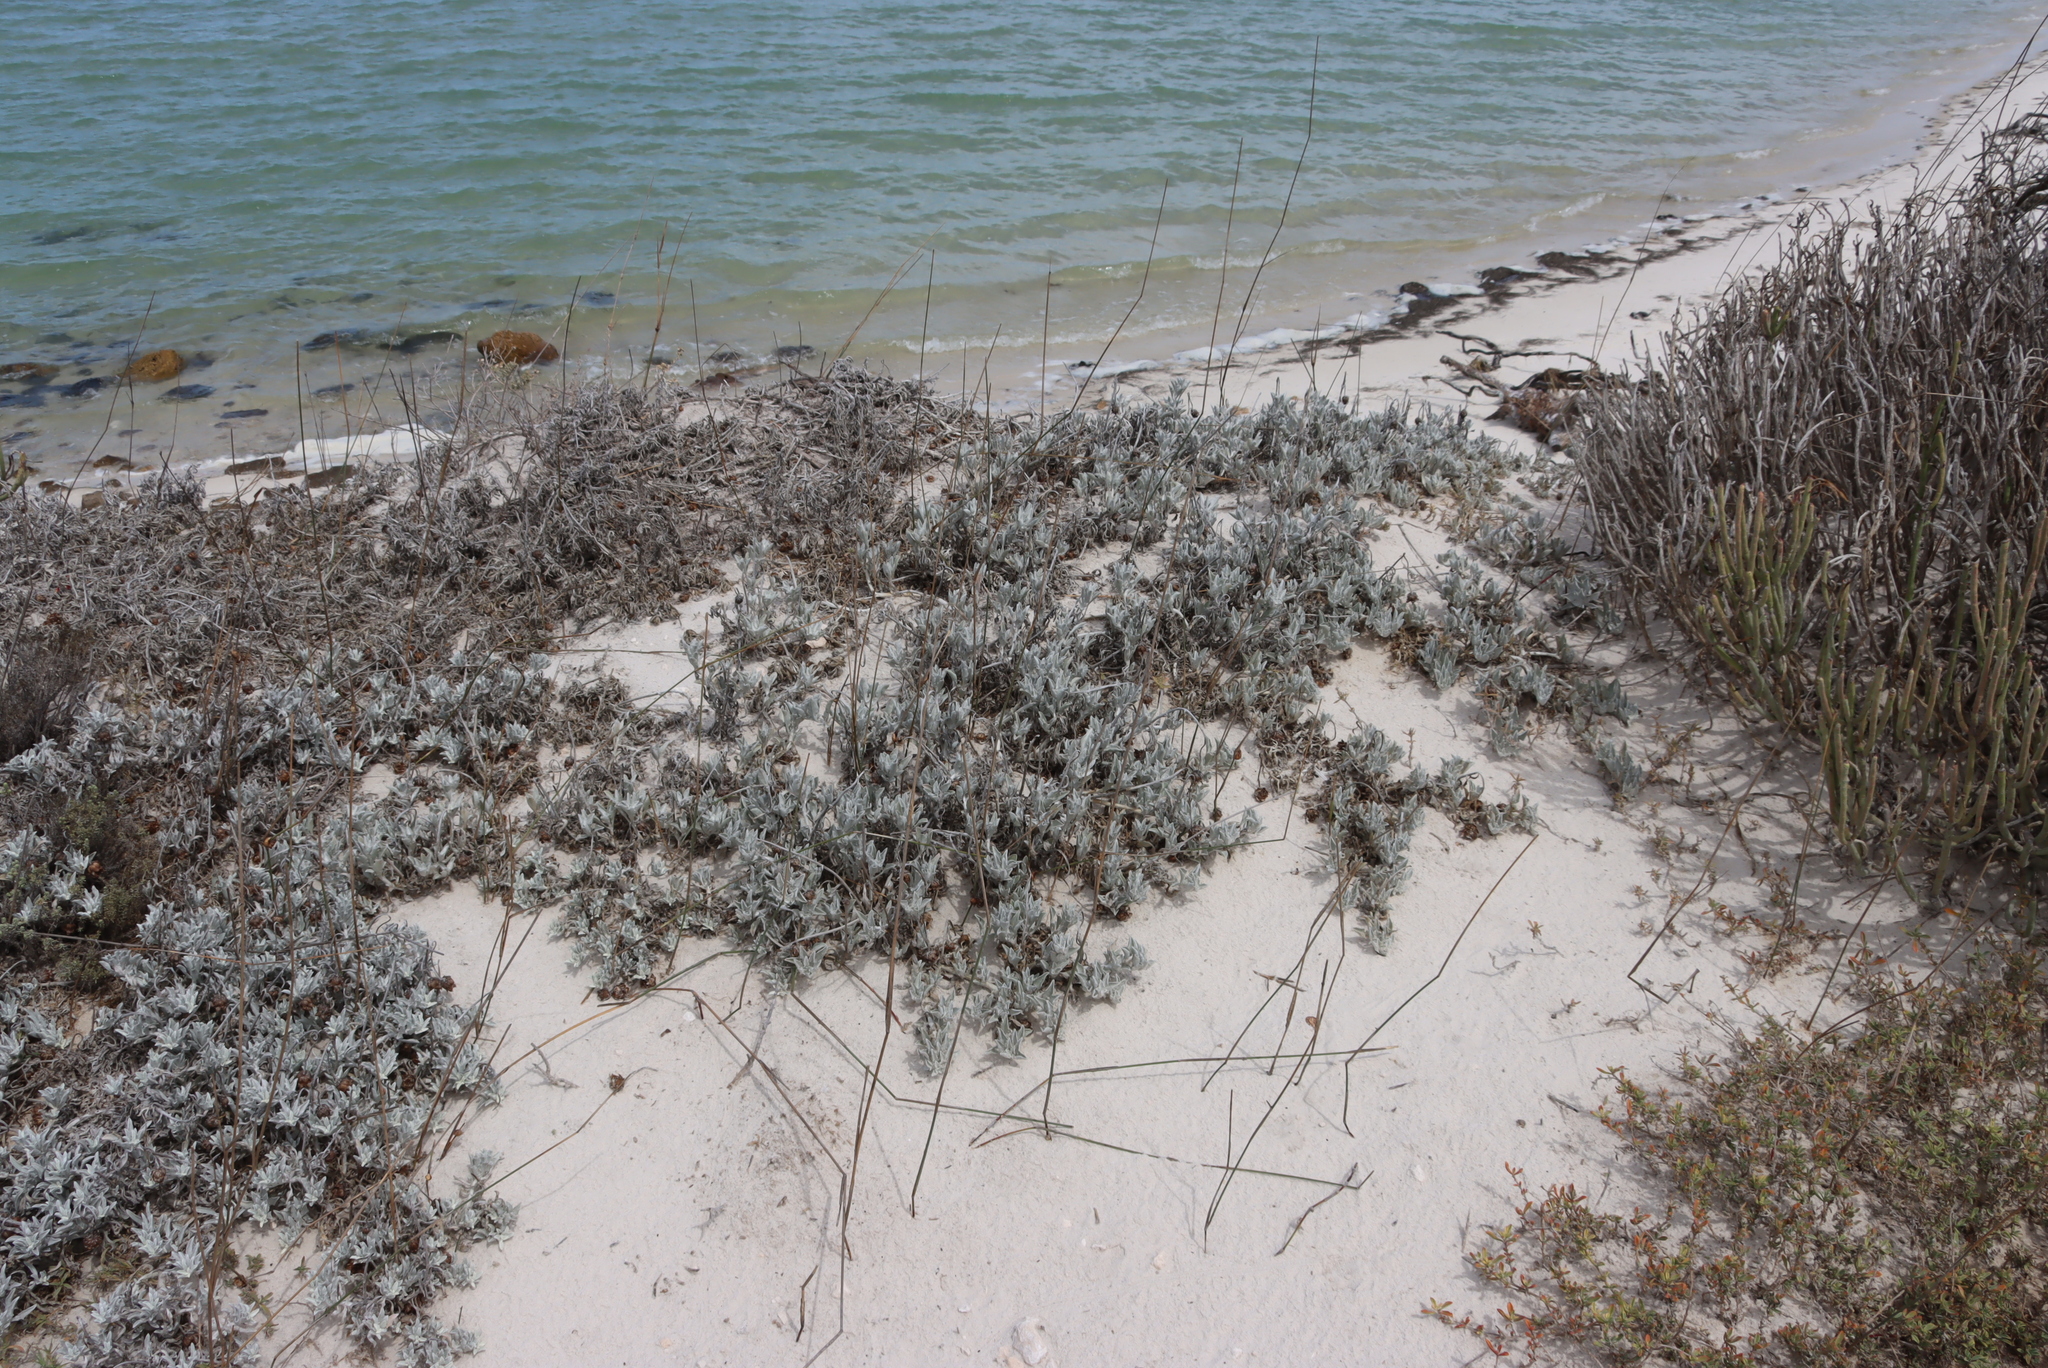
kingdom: Plantae
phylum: Tracheophyta
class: Magnoliopsida
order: Caryophyllales
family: Aizoaceae
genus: Tetragonia
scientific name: Tetragonia decumbens
